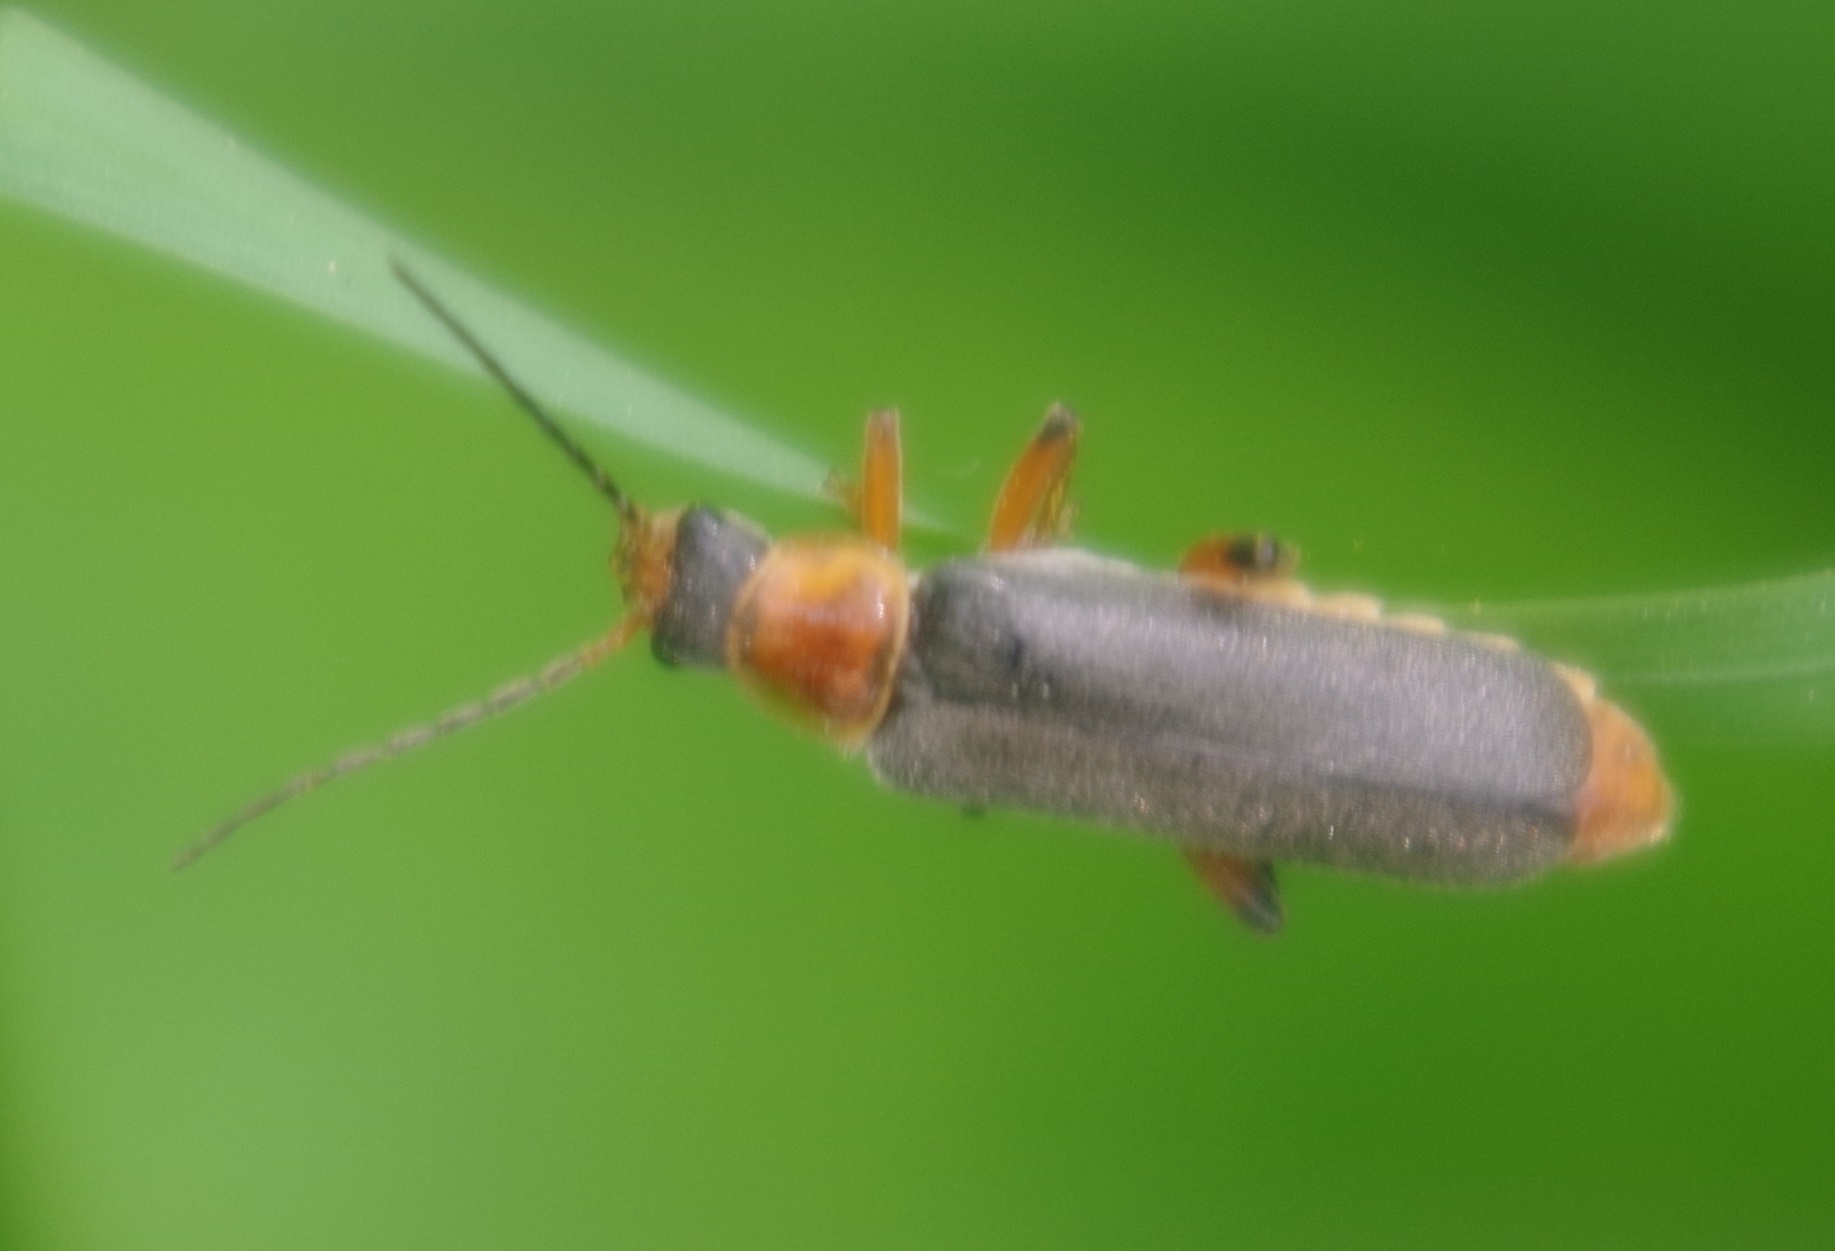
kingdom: Animalia
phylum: Arthropoda
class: Insecta
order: Coleoptera
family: Cantharidae
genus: Cantharis
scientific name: Cantharis nigricans
